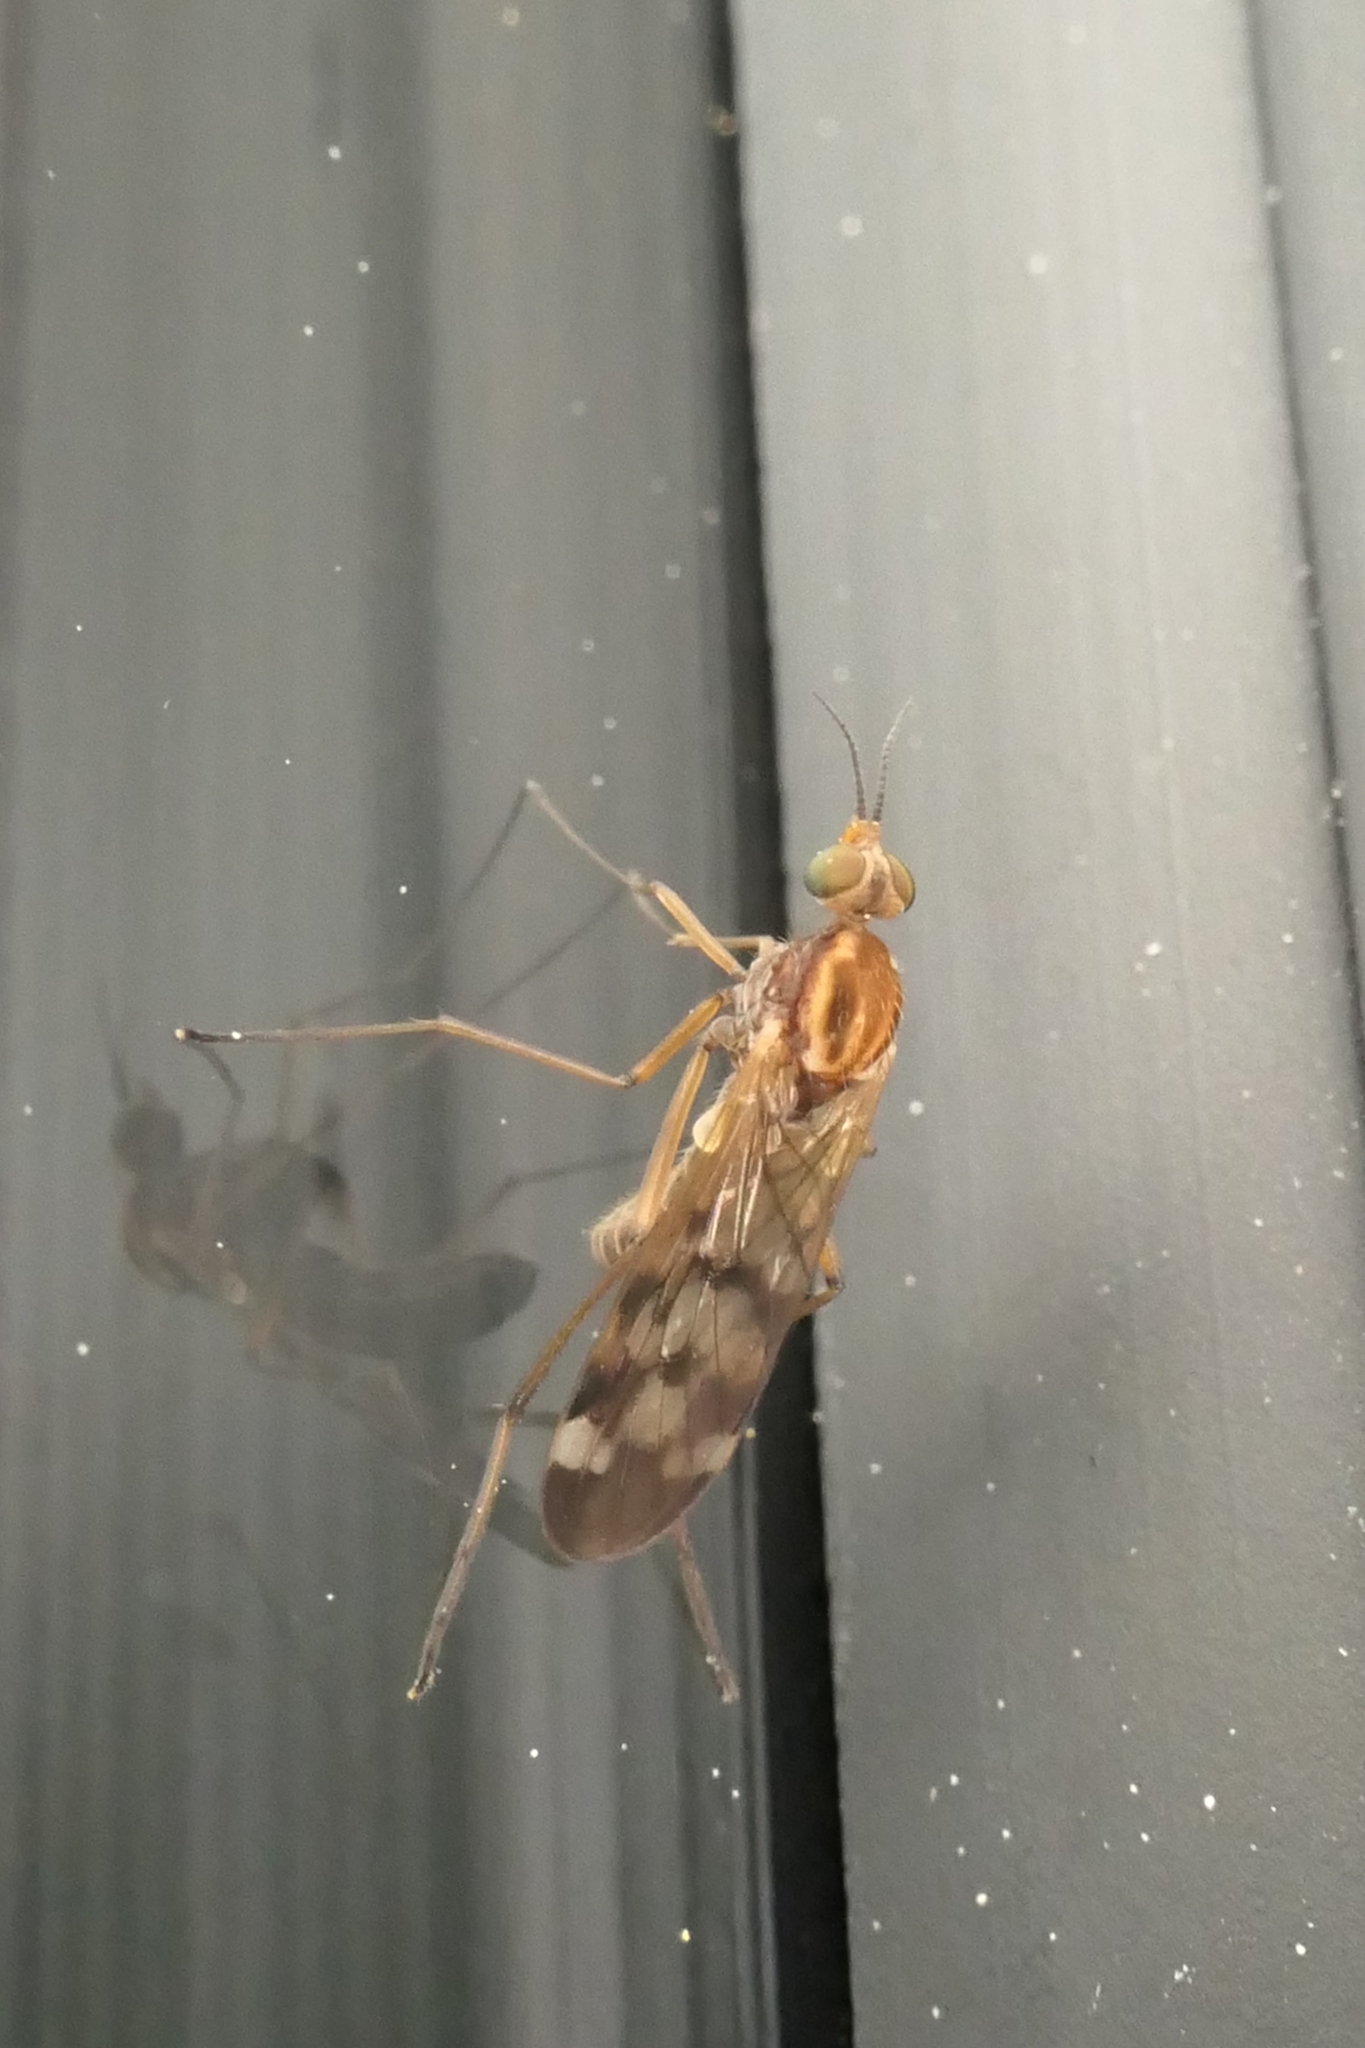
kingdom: Animalia
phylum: Arthropoda
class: Insecta
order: Diptera
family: Anisopodidae
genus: Sylvicola
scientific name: Sylvicola notatus
